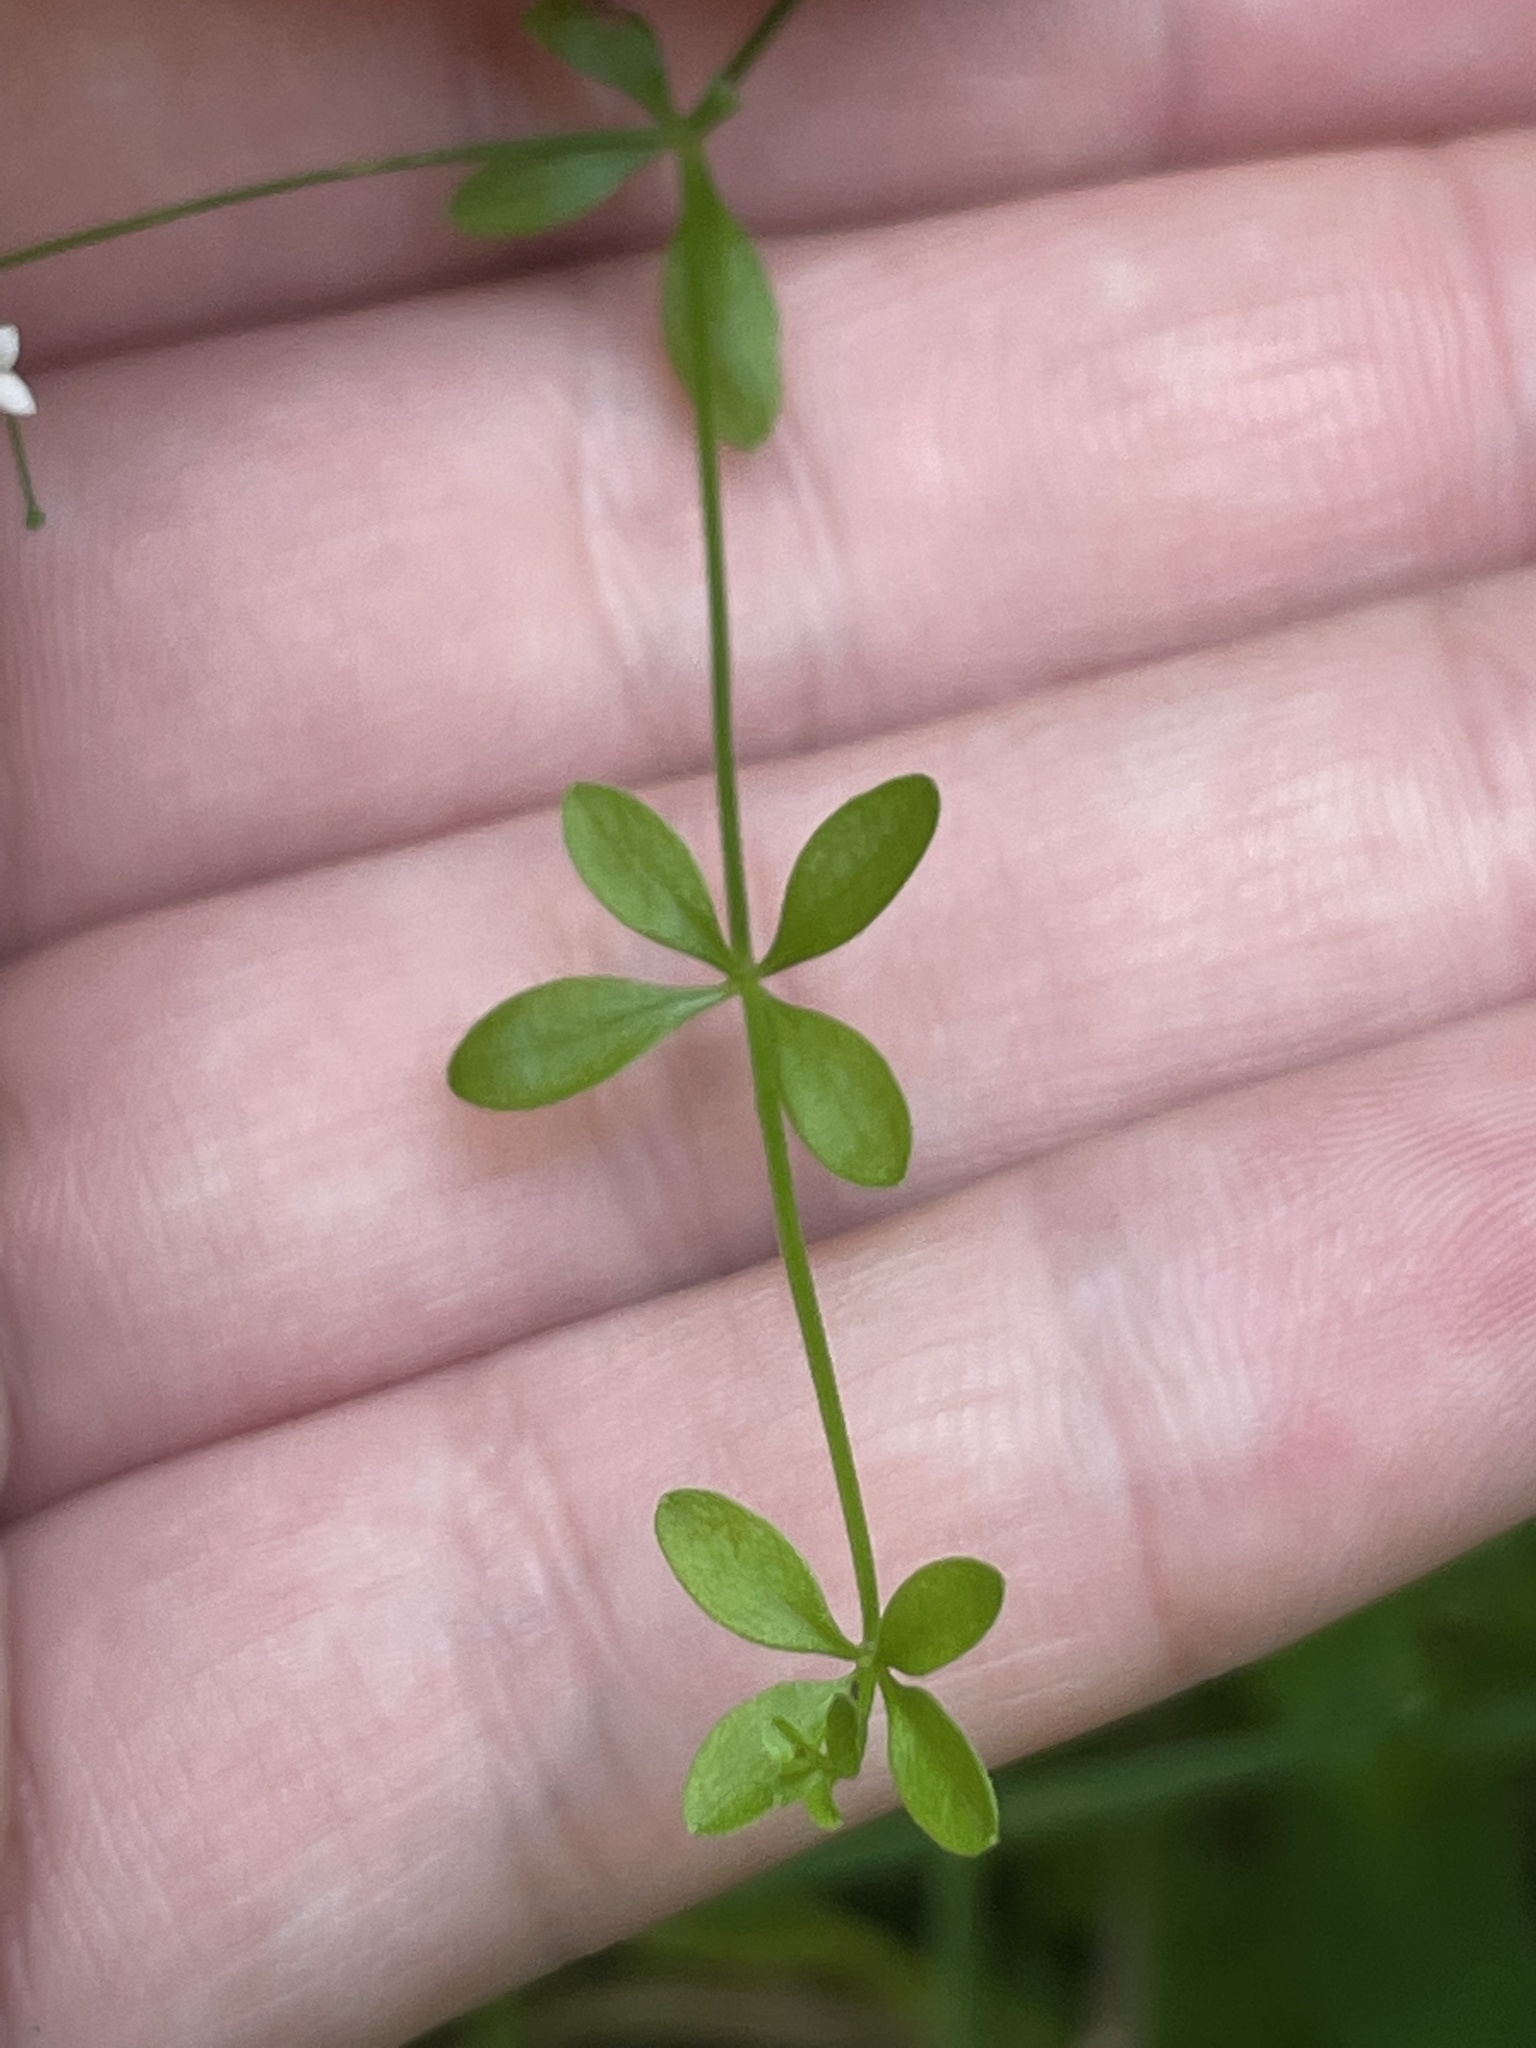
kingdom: Plantae
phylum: Tracheophyta
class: Magnoliopsida
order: Caryophyllales
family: Caryophyllaceae
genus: Stellaria
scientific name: Stellaria graminea
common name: Grass-like starwort
